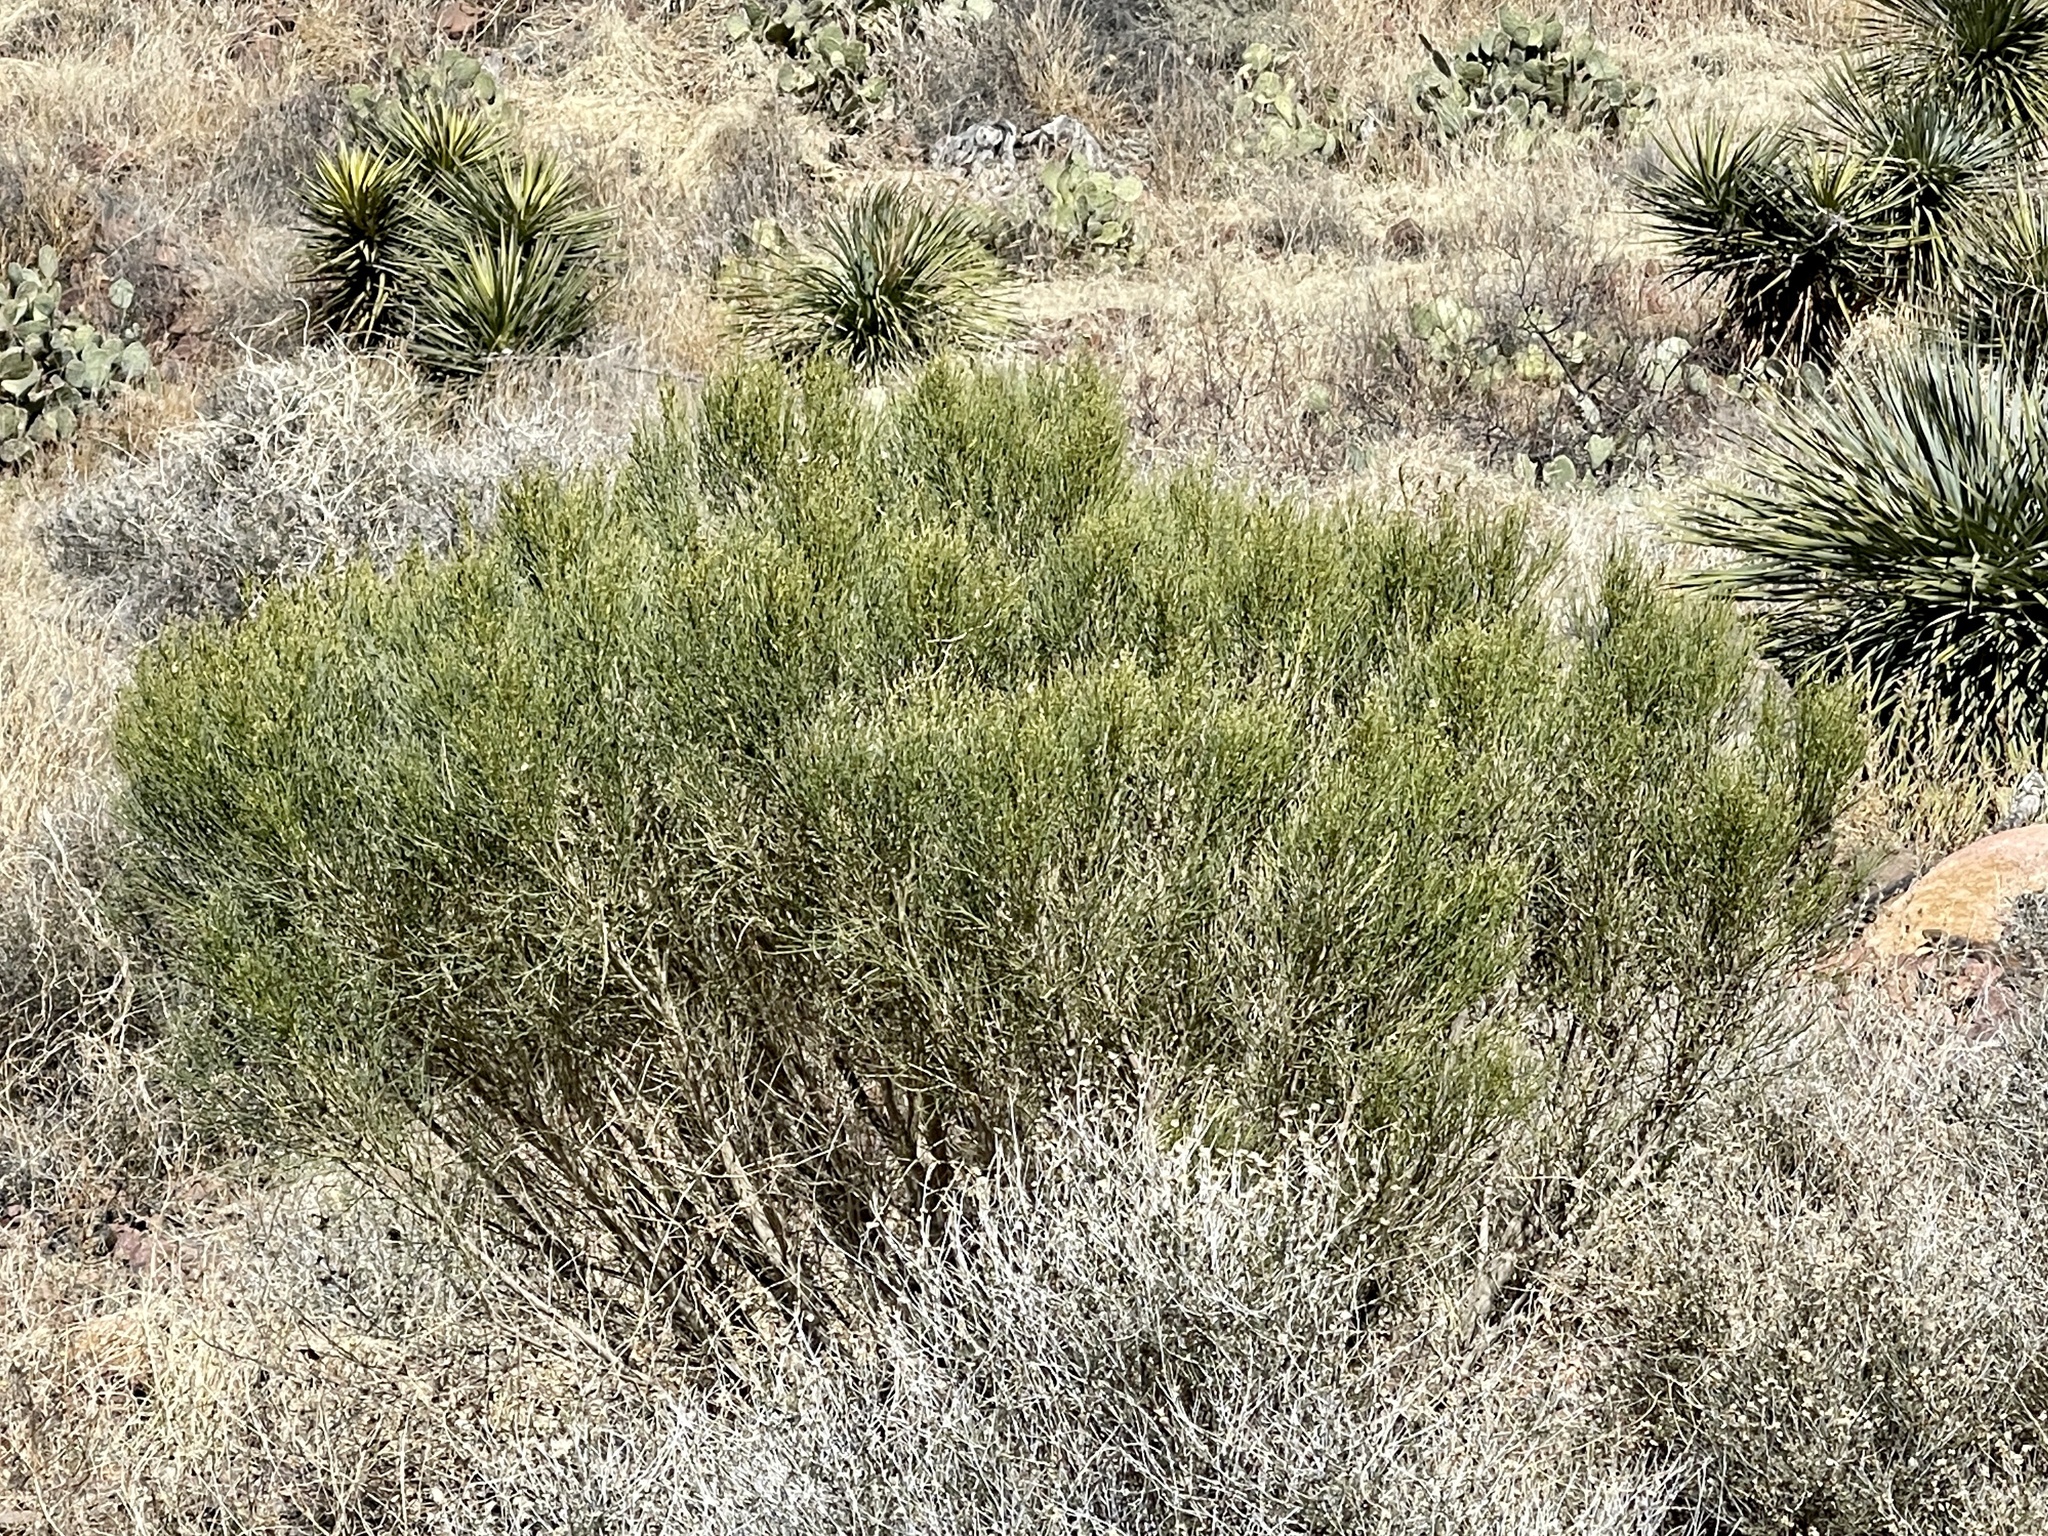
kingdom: Plantae
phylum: Tracheophyta
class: Magnoliopsida
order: Asterales
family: Asteraceae
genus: Baccharis
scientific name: Baccharis sarothroides
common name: Desert-broom
